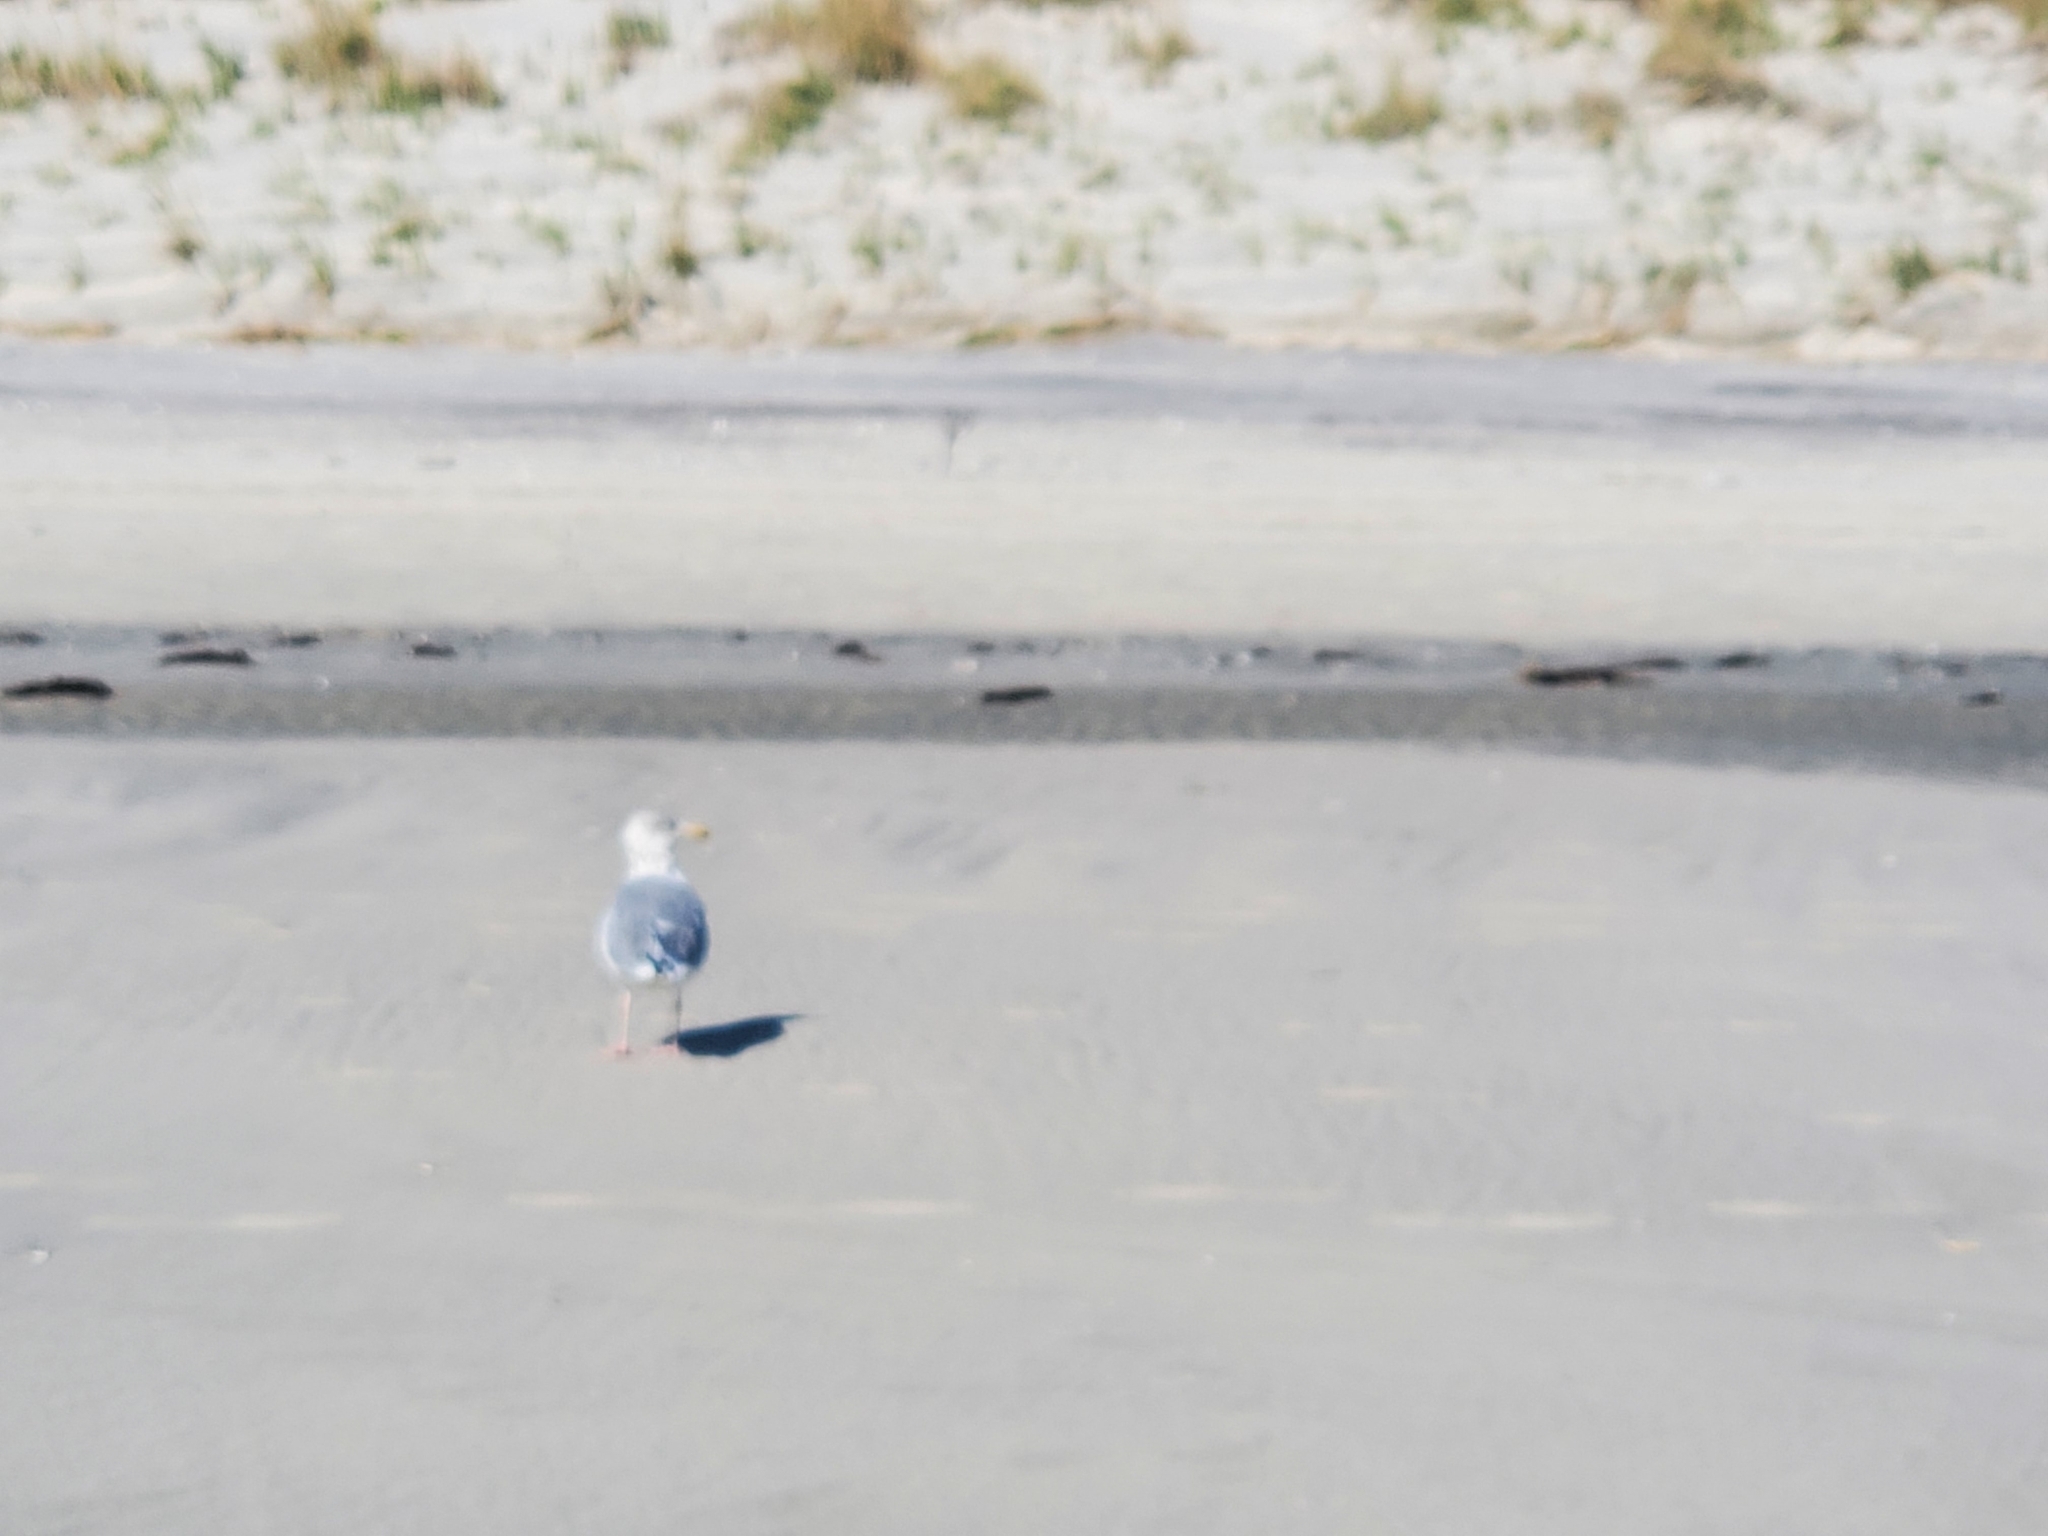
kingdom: Animalia
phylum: Chordata
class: Aves
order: Charadriiformes
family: Laridae
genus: Larus
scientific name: Larus argentatus
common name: Herring gull
